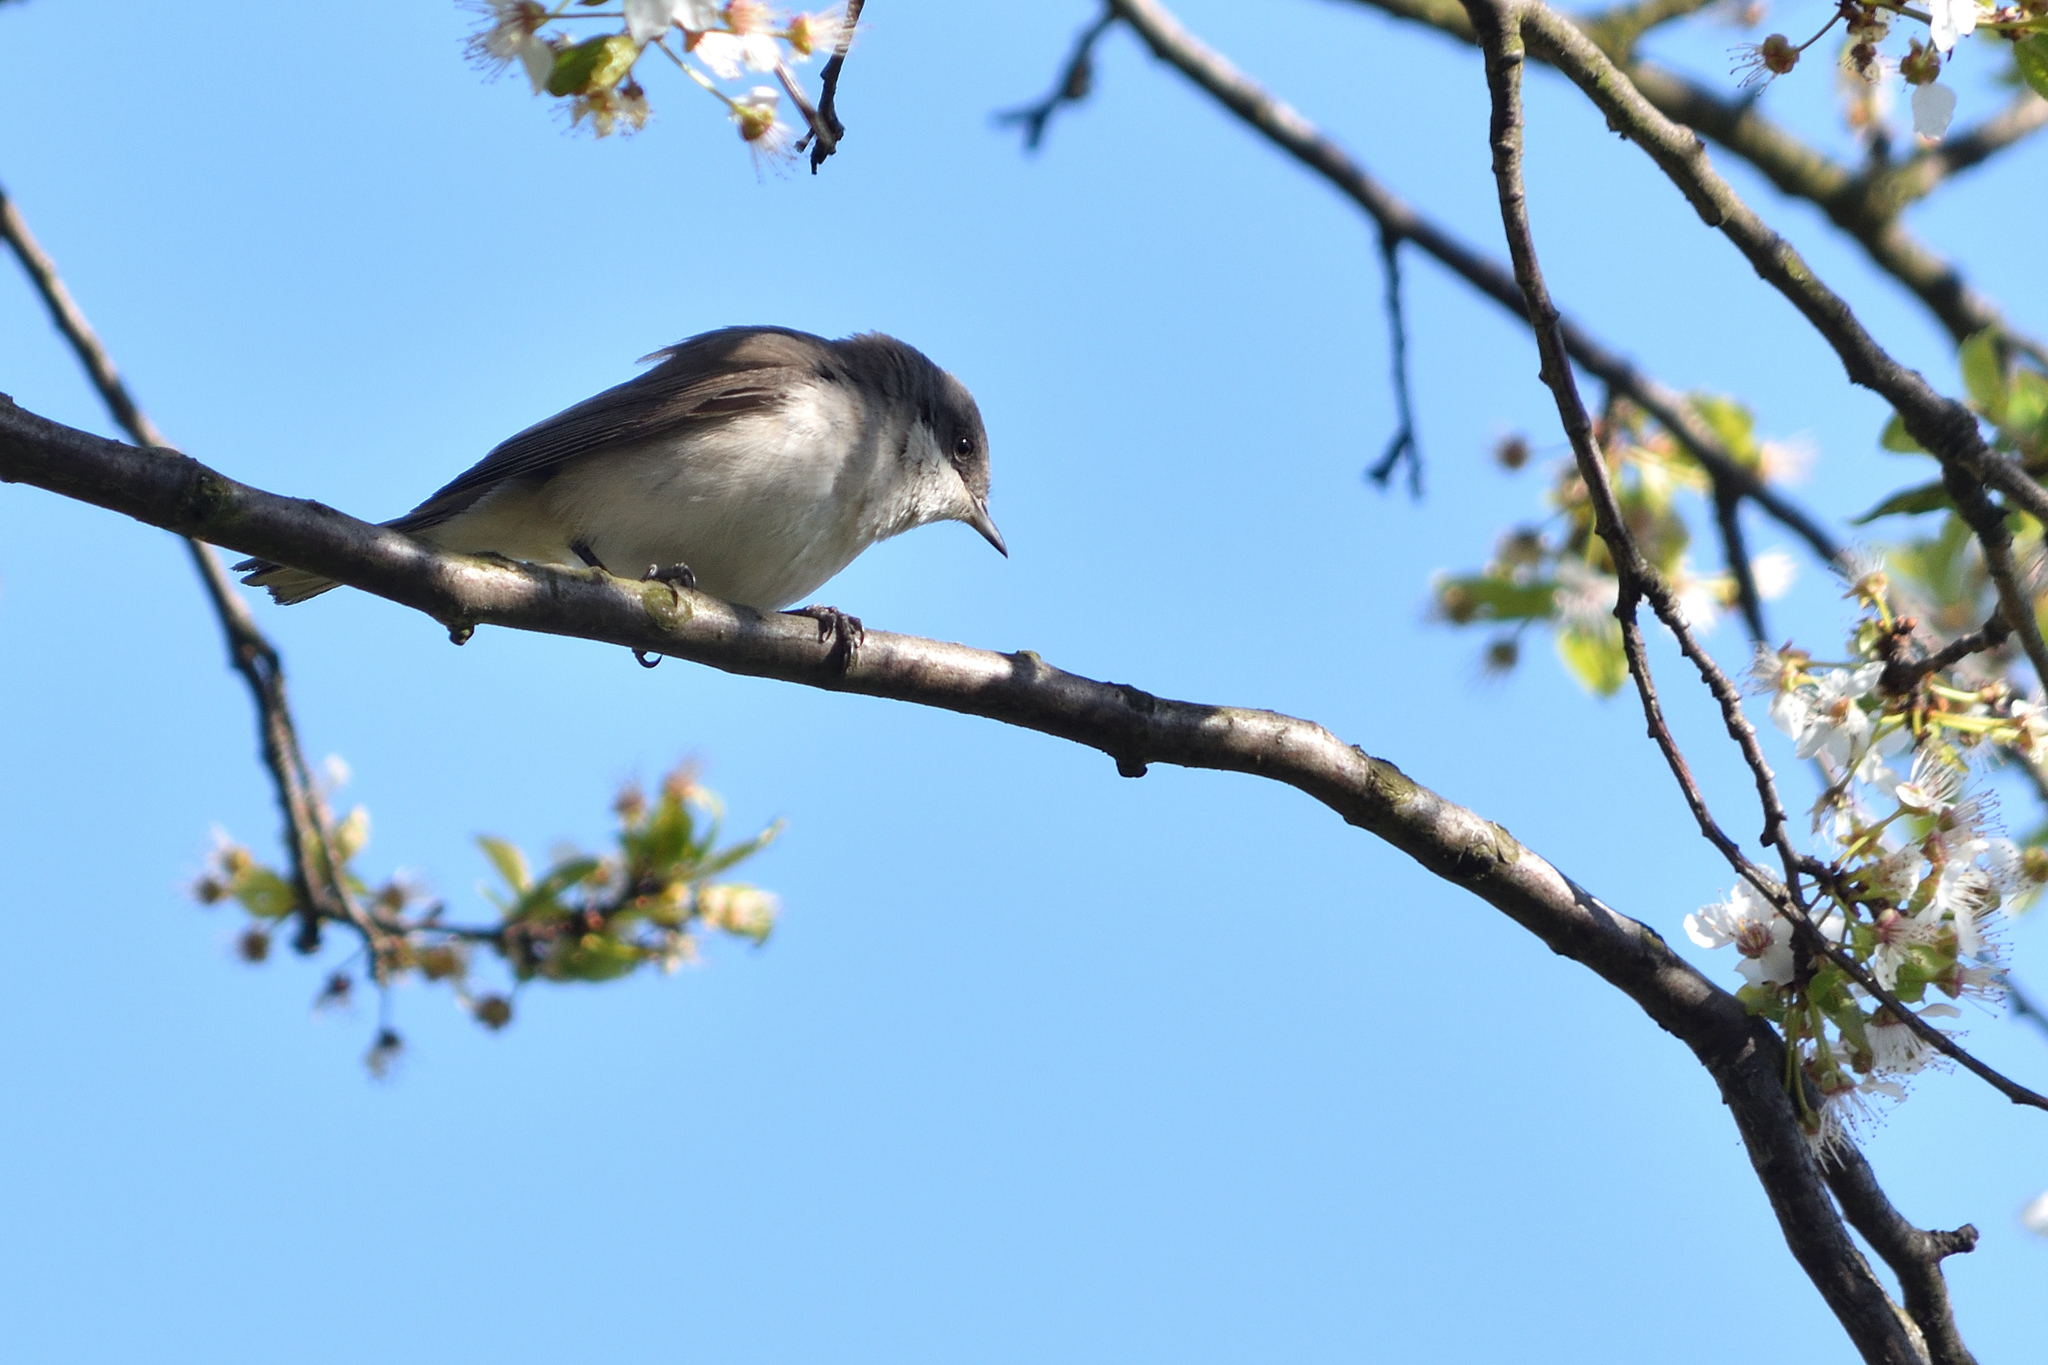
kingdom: Animalia
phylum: Chordata
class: Aves
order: Passeriformes
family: Sylviidae
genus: Sylvia
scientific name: Sylvia curruca
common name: Lesser whitethroat
